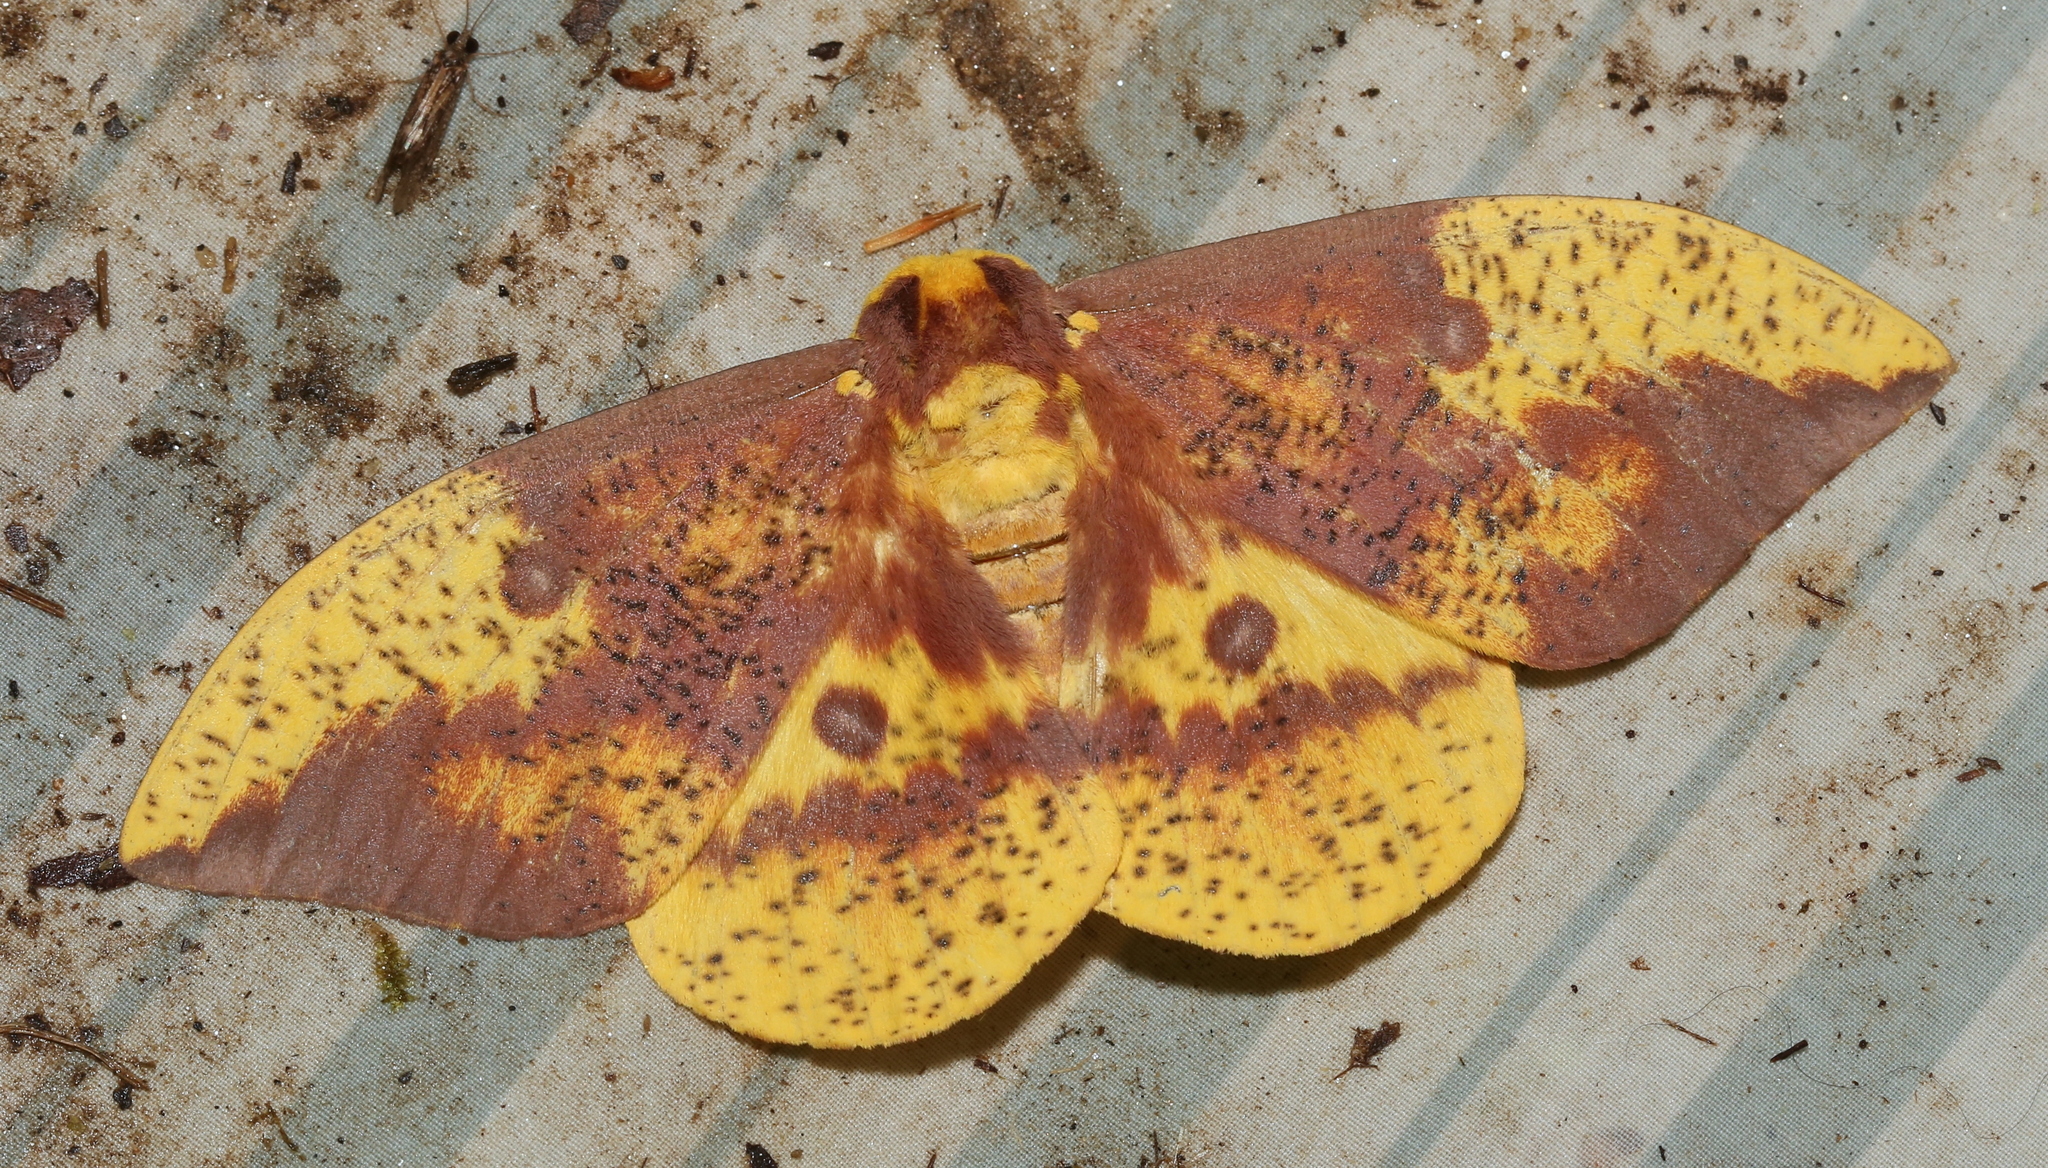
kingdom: Animalia
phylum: Arthropoda
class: Insecta
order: Lepidoptera
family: Saturniidae
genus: Eacles
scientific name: Eacles imperialis
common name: Imperial moth
